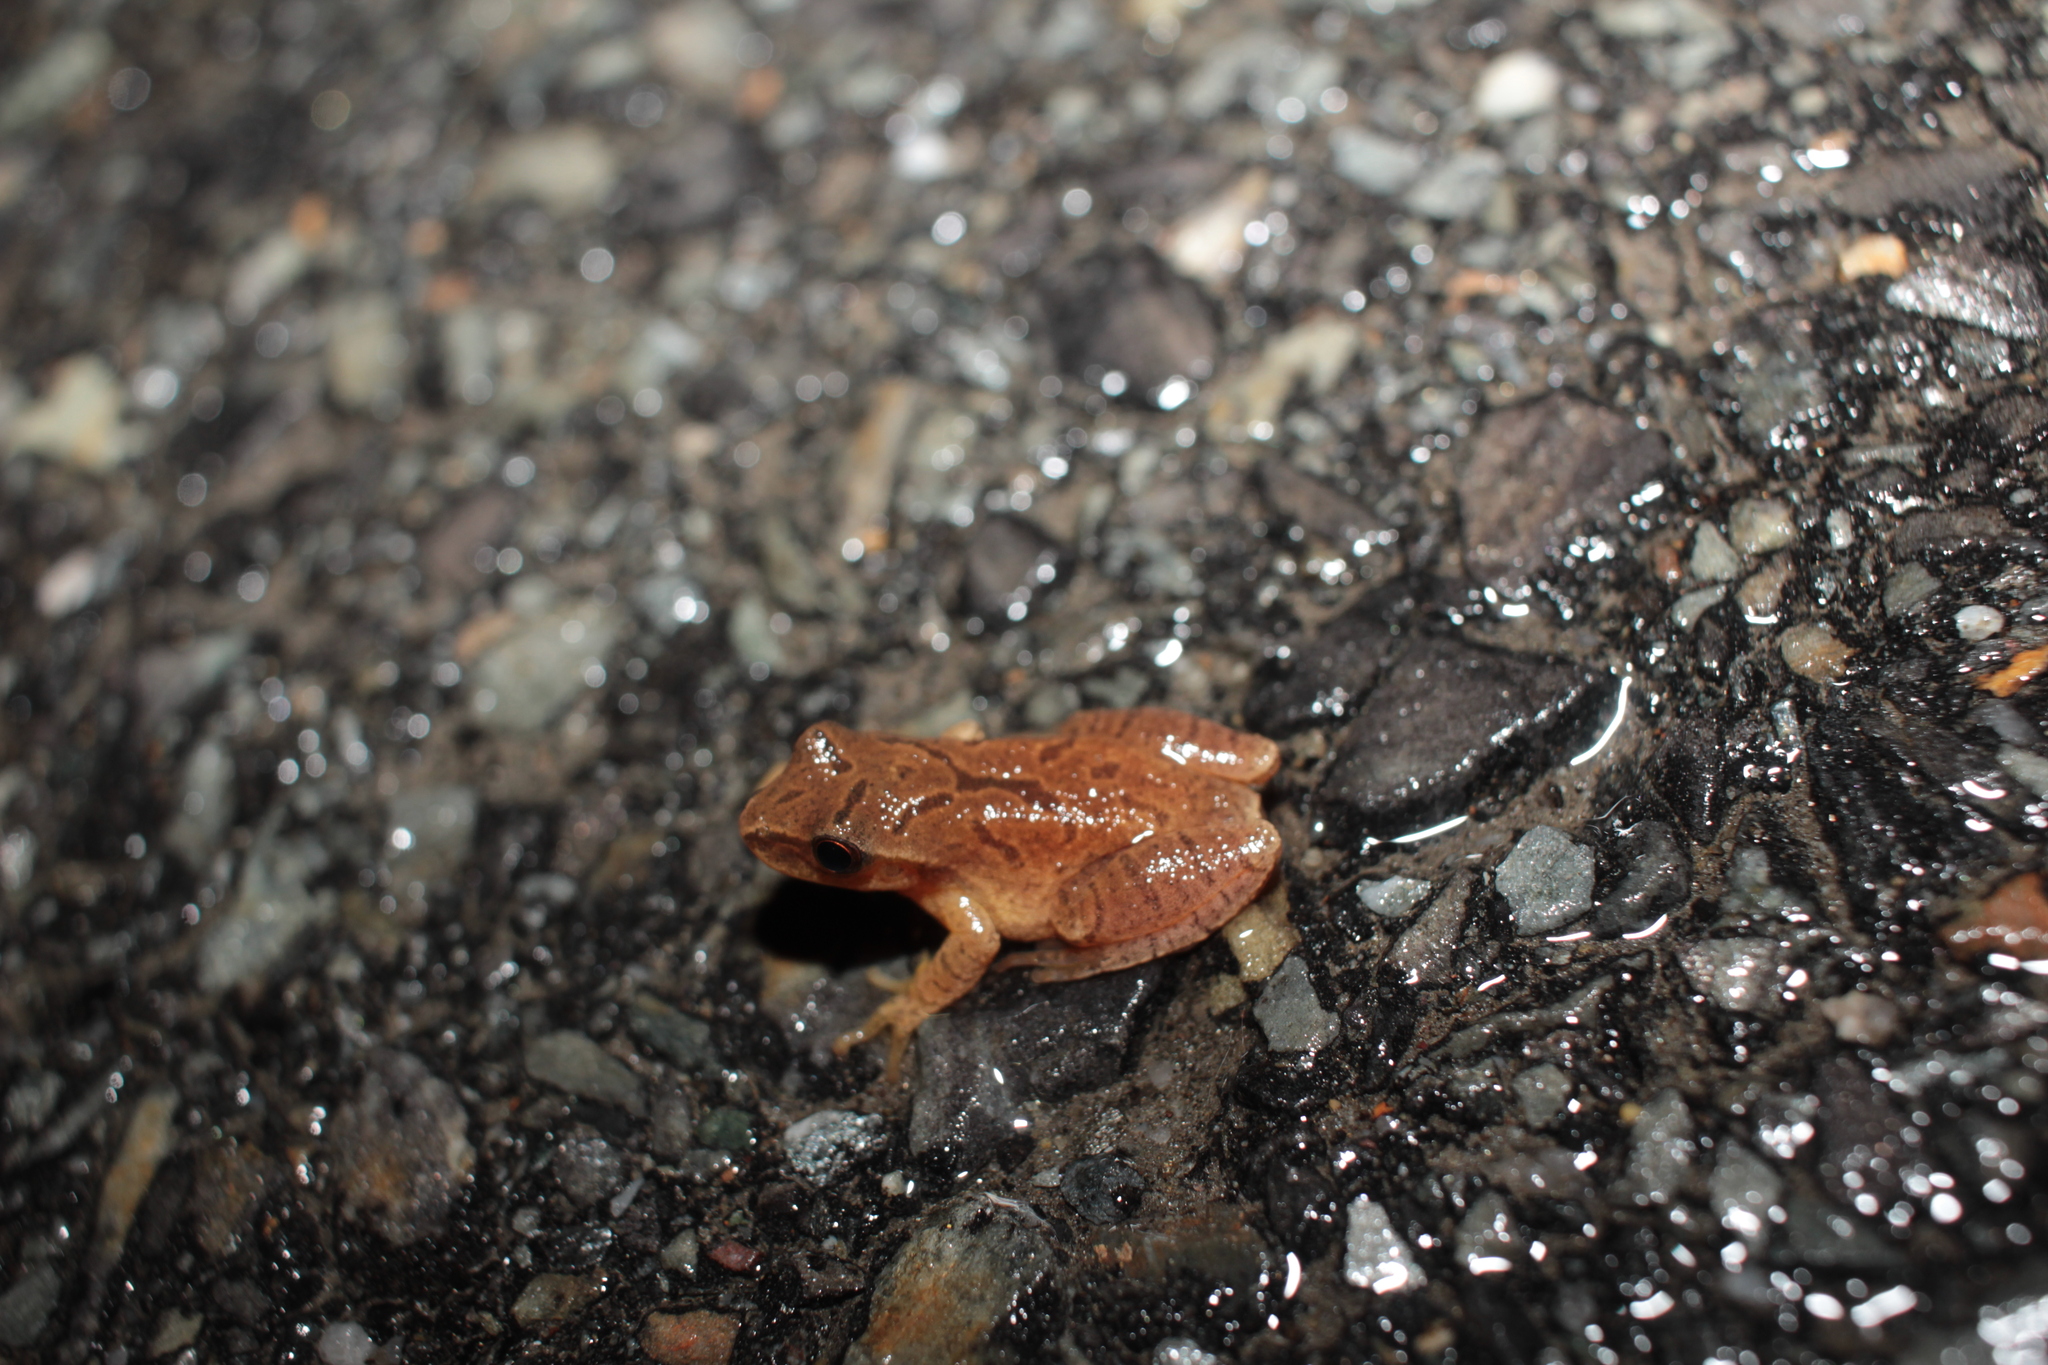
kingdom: Animalia
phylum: Chordata
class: Amphibia
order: Anura
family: Hylidae
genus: Pseudacris
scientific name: Pseudacris crucifer
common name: Spring peeper
